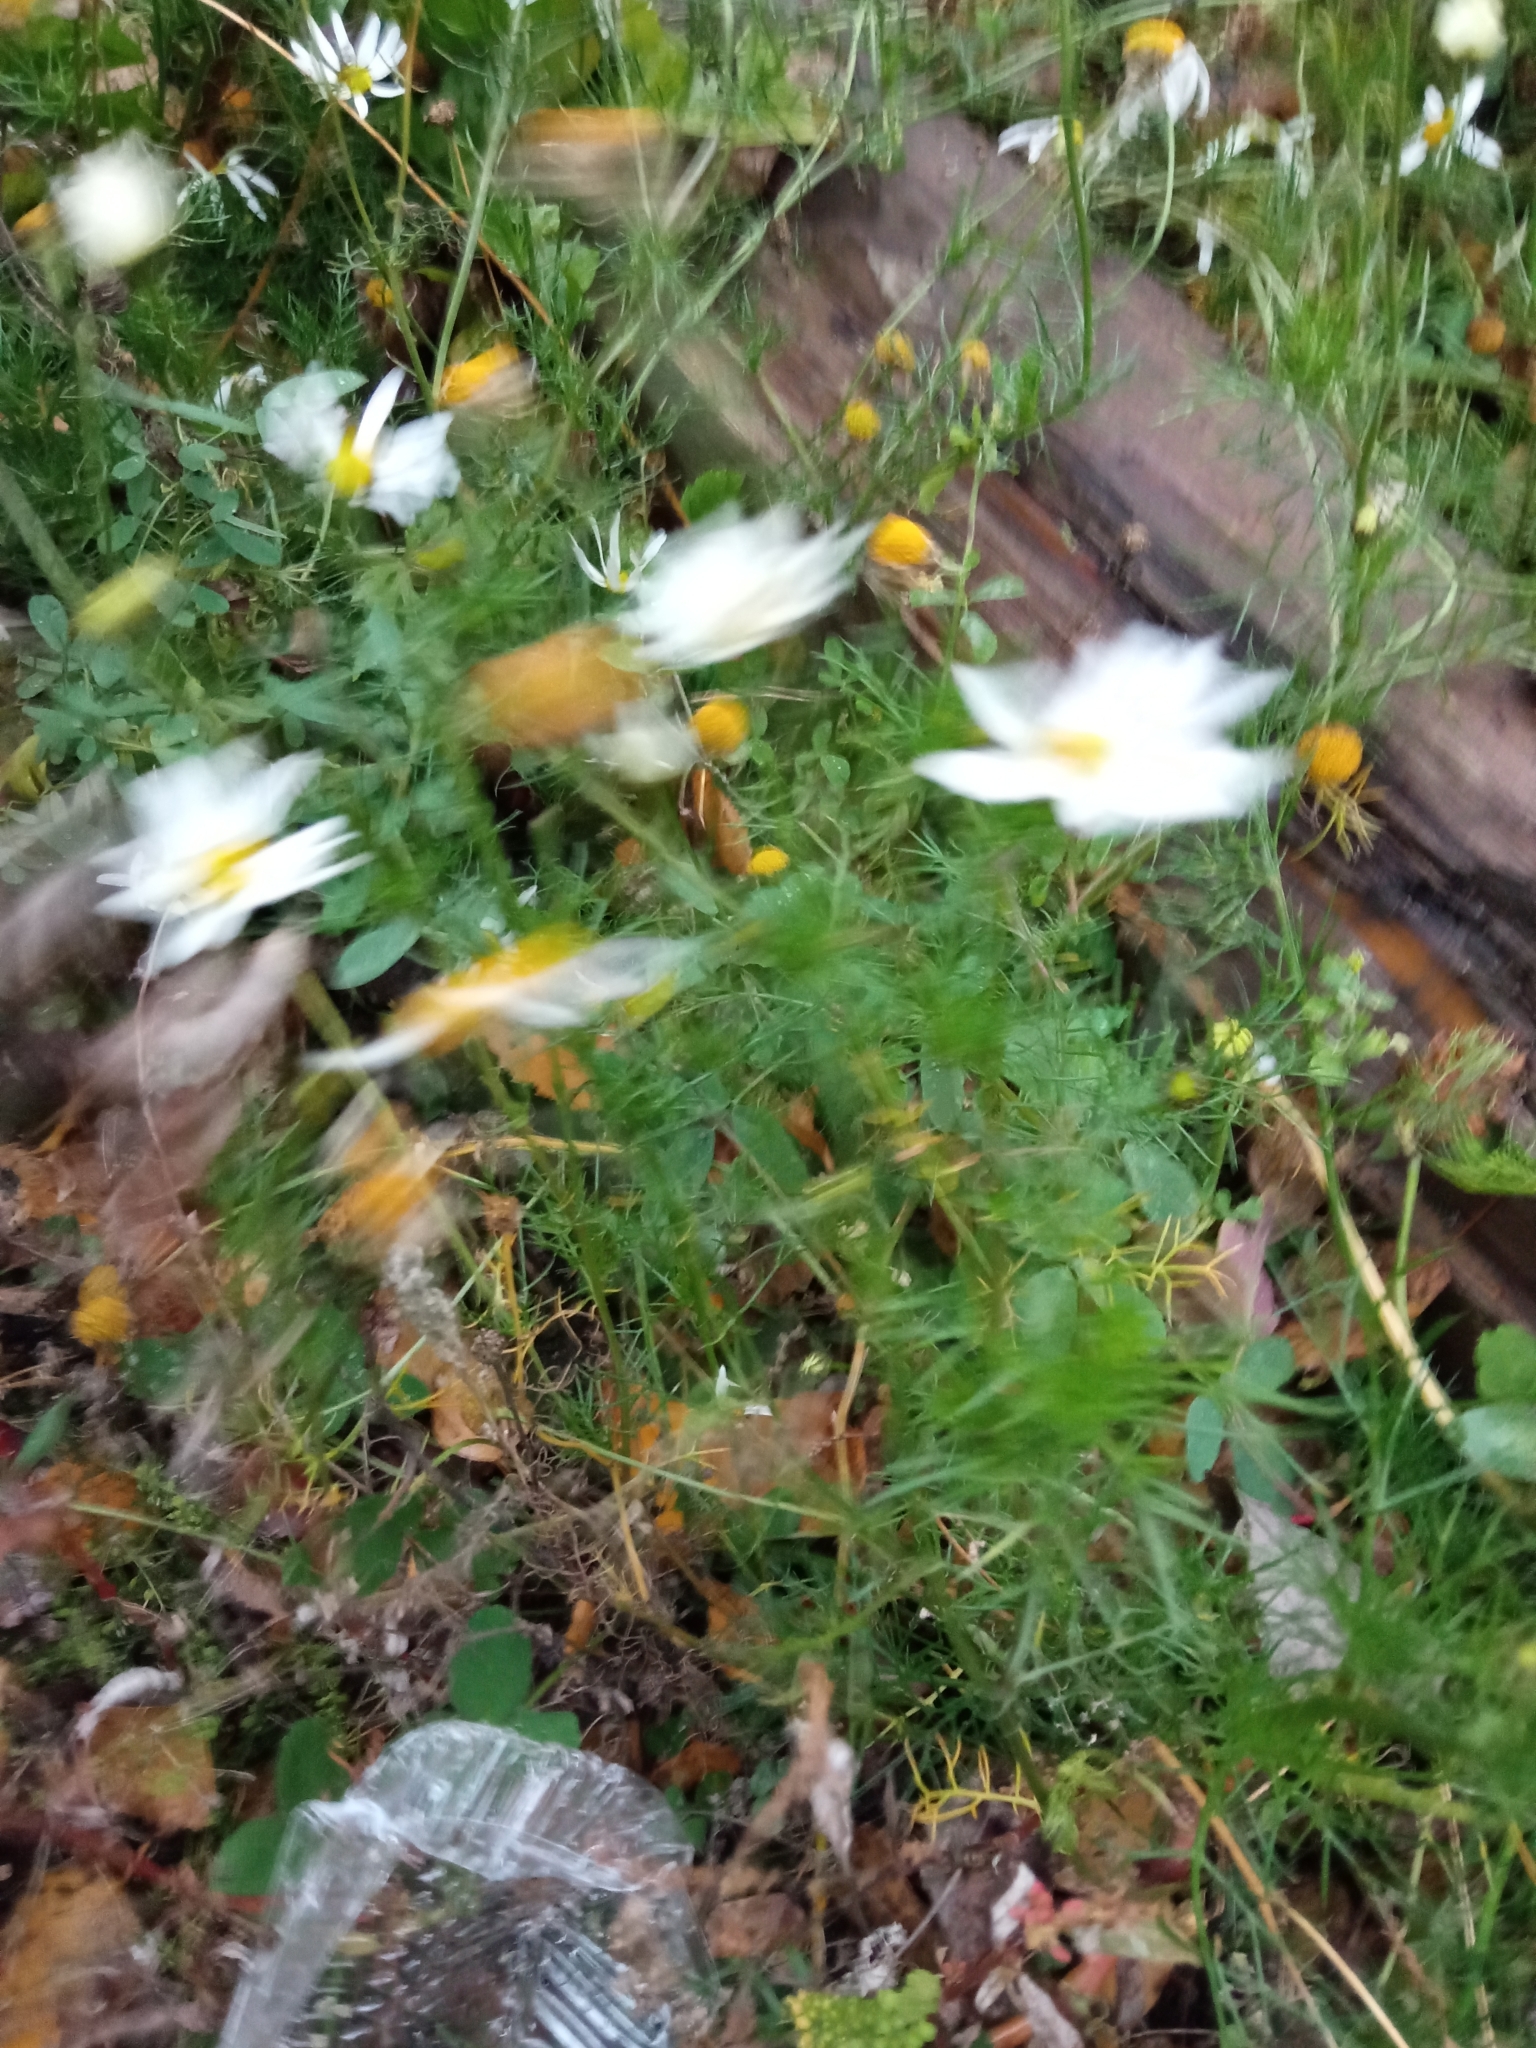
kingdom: Plantae
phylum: Tracheophyta
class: Magnoliopsida
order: Asterales
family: Asteraceae
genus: Tripleurospermum
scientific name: Tripleurospermum inodorum
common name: Scentless mayweed
